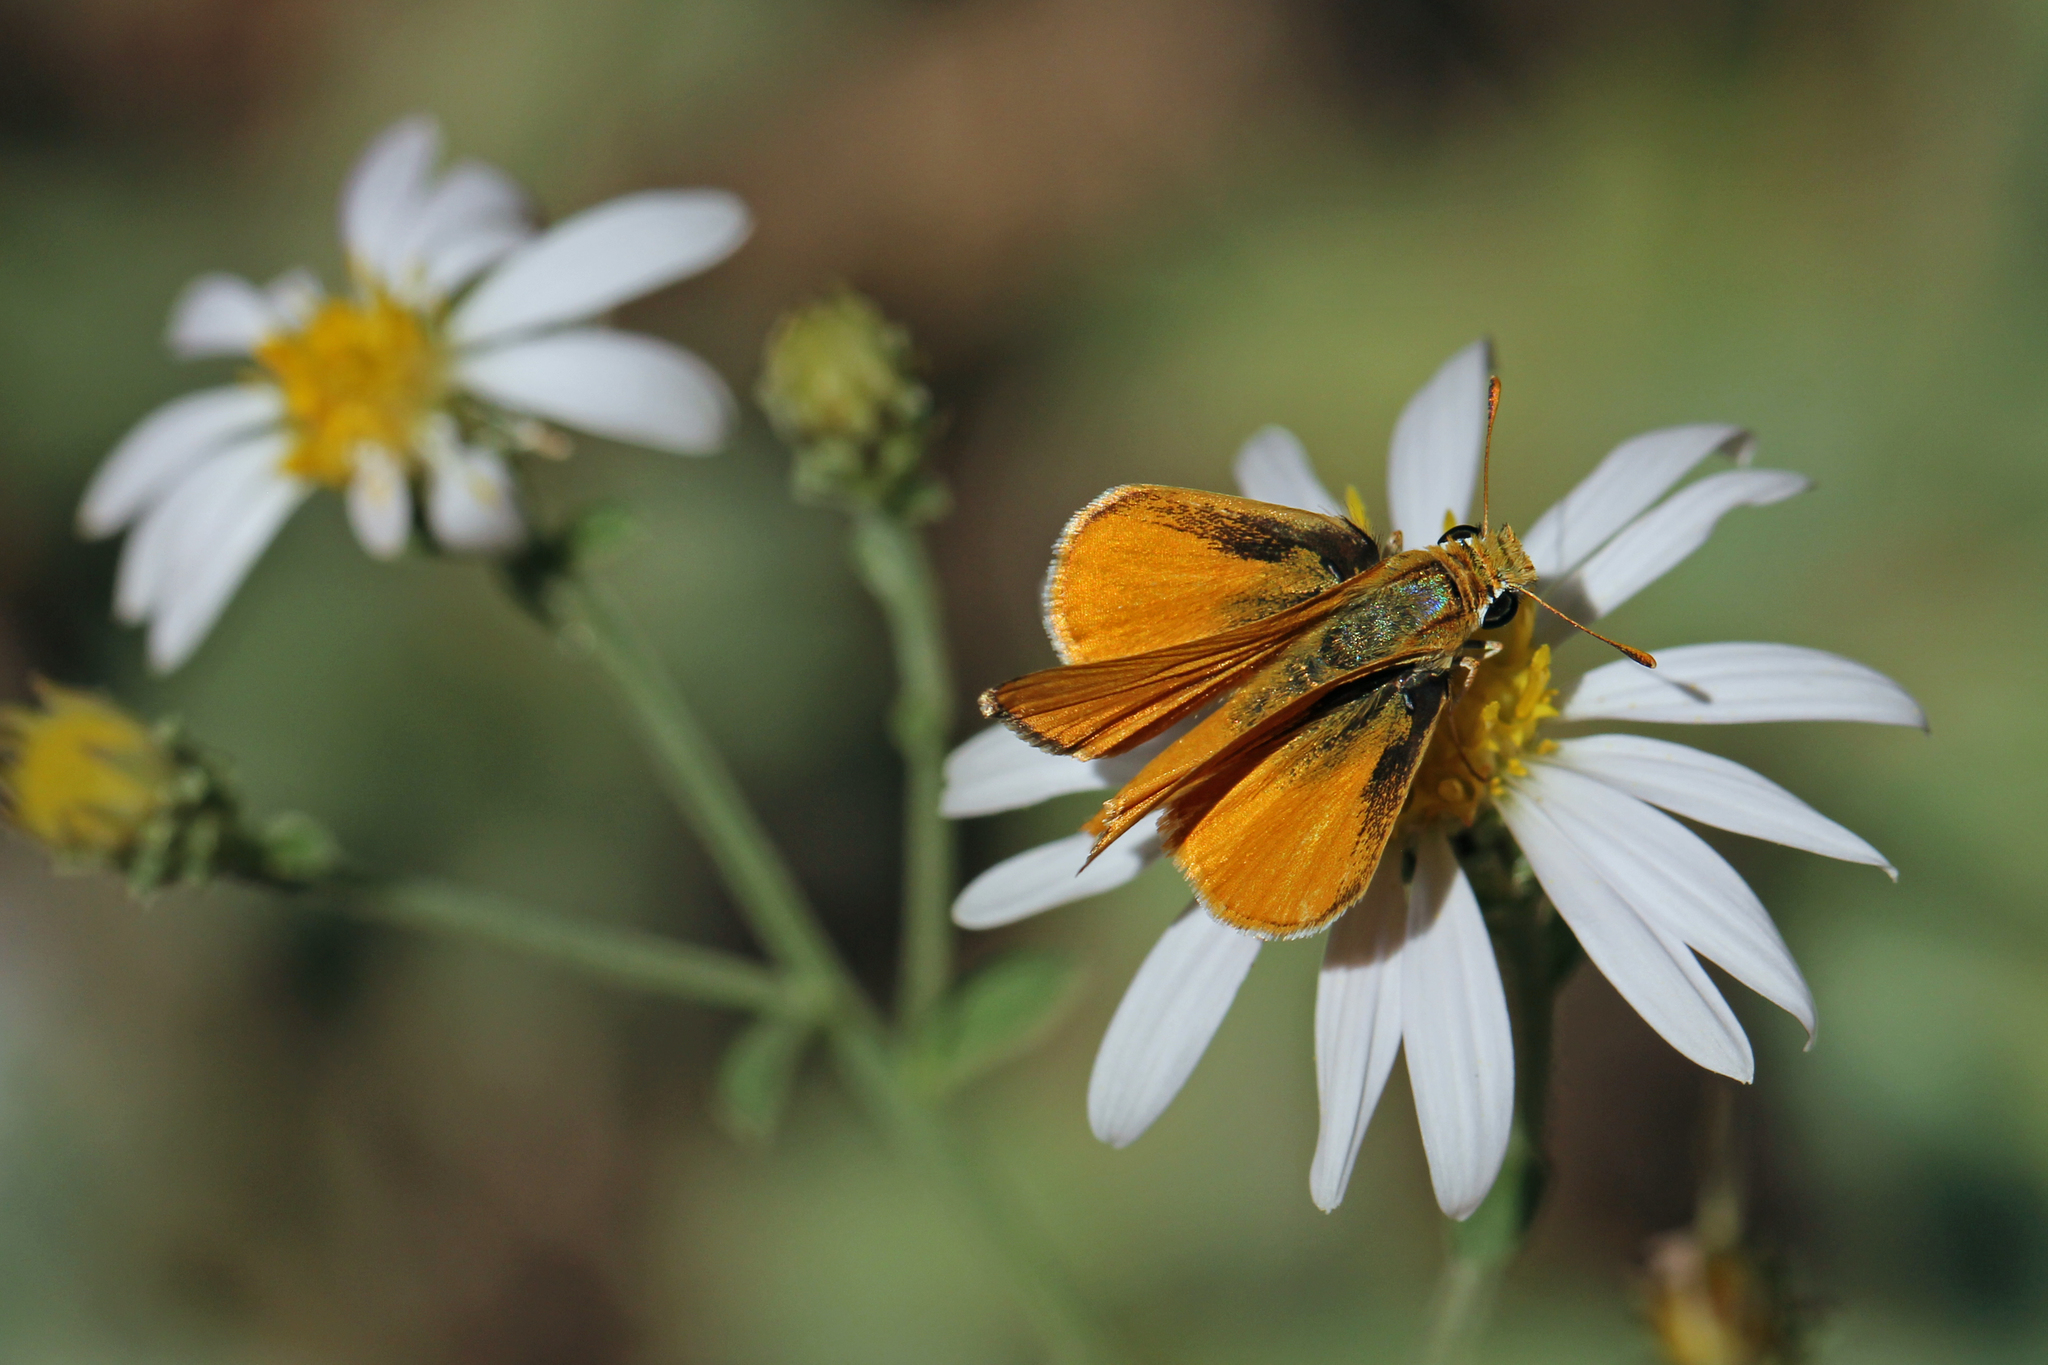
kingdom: Animalia
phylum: Arthropoda
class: Insecta
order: Lepidoptera
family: Hesperiidae
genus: Copaeodes
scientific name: Copaeodes aurantiaca
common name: Orange skipperling
